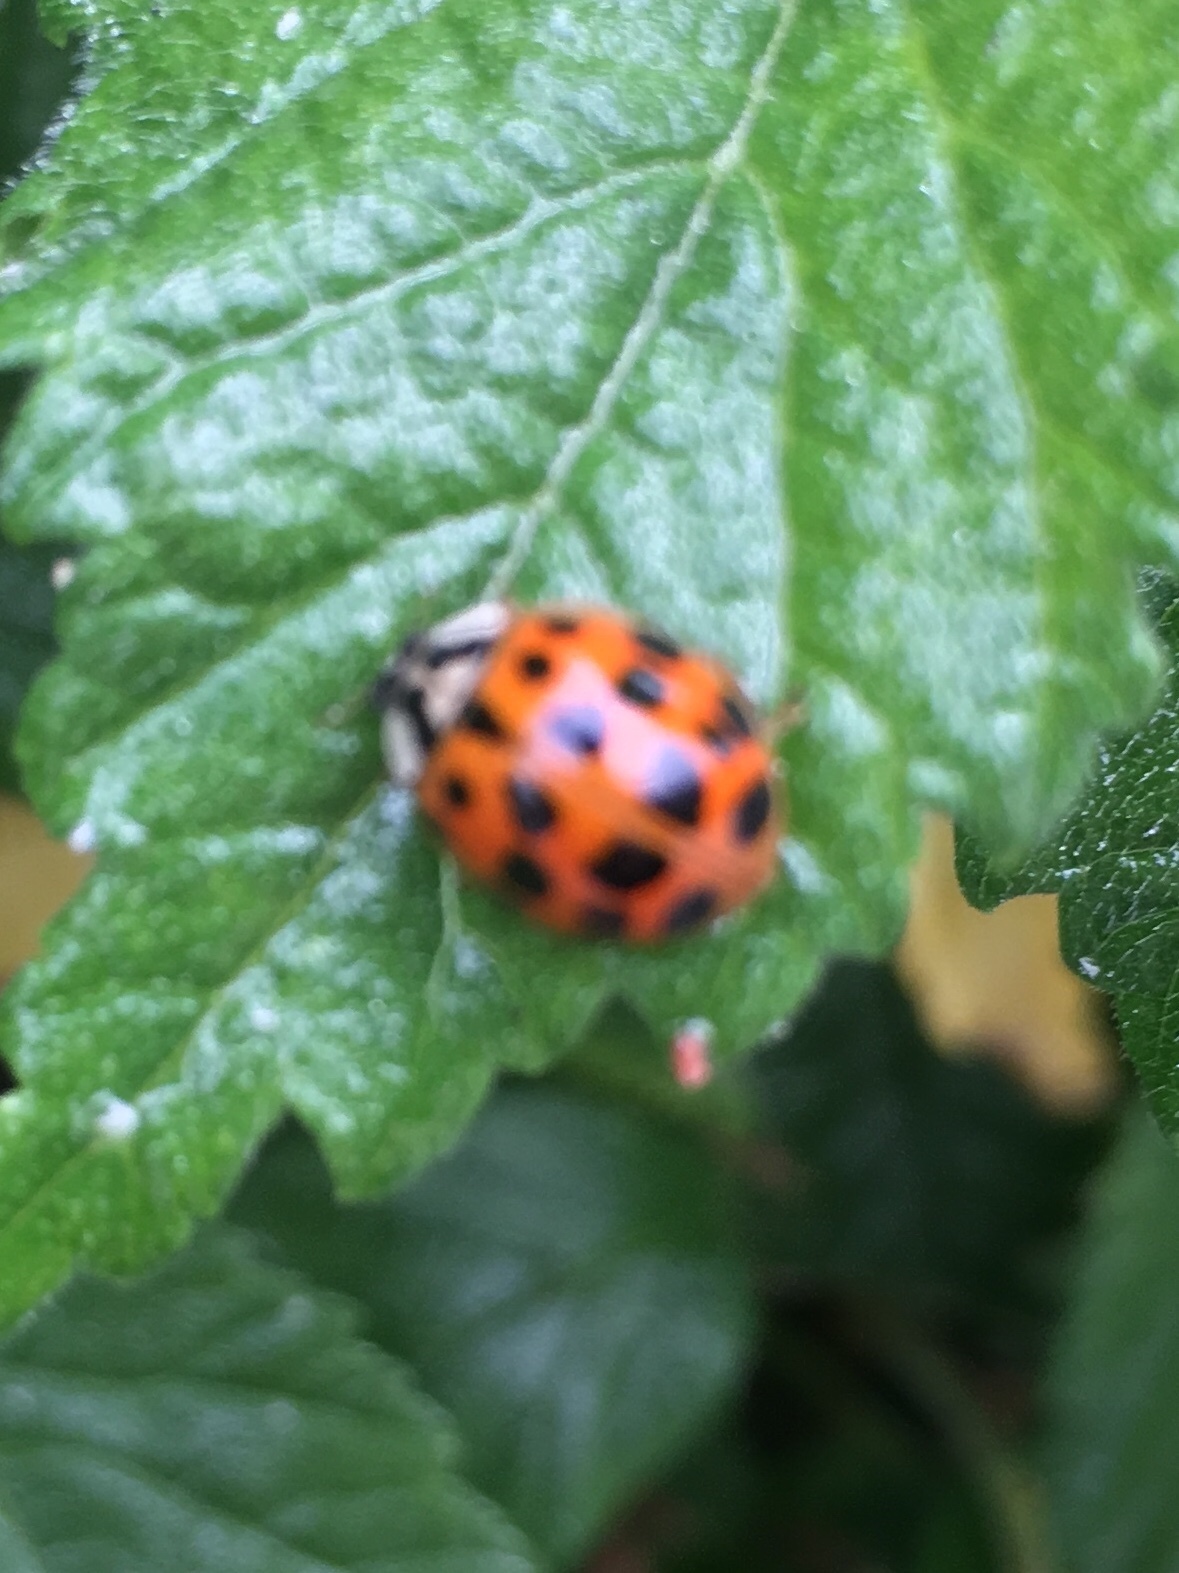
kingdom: Animalia
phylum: Arthropoda
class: Insecta
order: Coleoptera
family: Coccinellidae
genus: Harmonia
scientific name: Harmonia axyridis
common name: Harlequin ladybird
